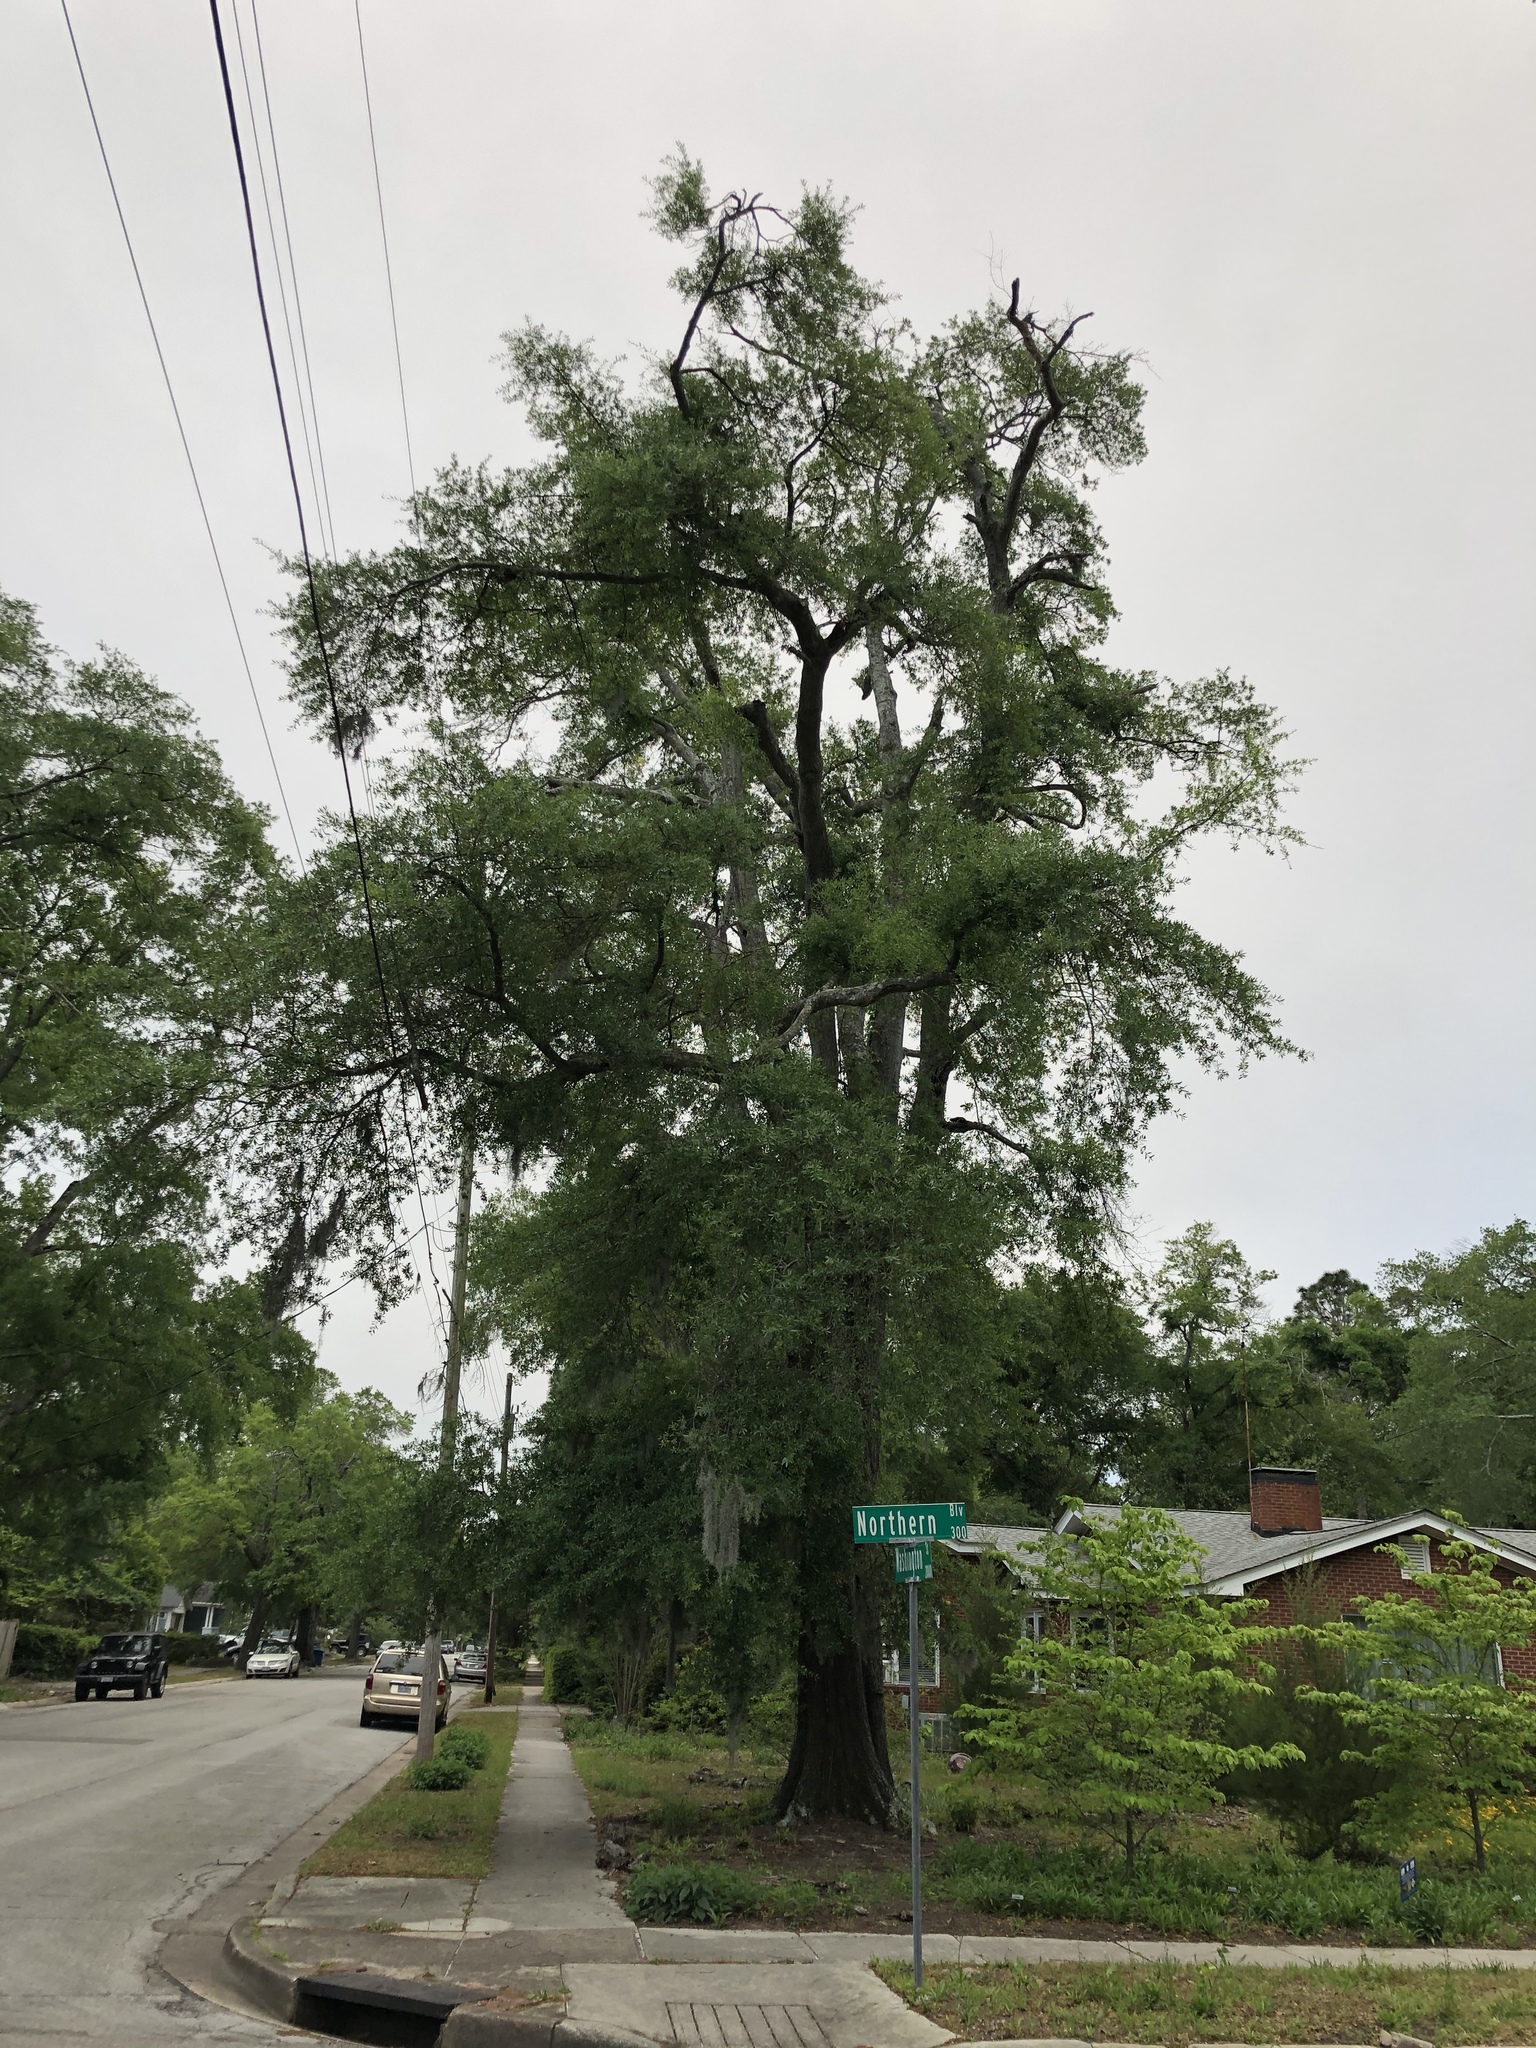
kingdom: Plantae
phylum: Tracheophyta
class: Magnoliopsida
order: Fagales
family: Fagaceae
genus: Quercus
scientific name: Quercus laurifolia
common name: Swamp laurel oak
